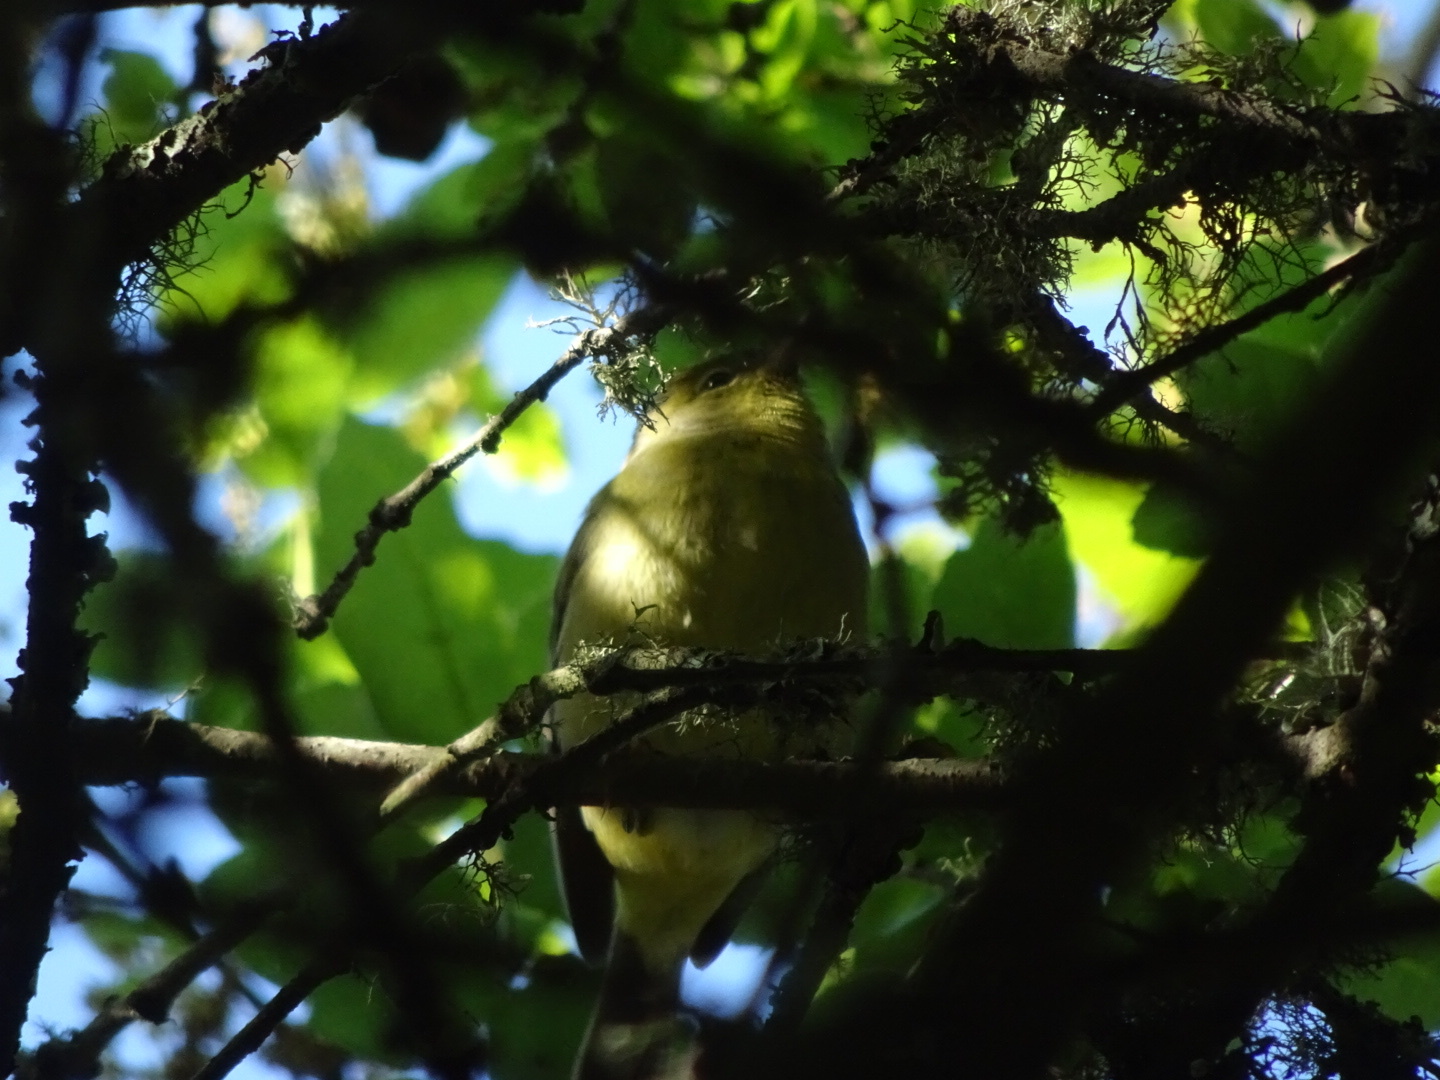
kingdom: Animalia
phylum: Chordata
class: Aves
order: Passeriformes
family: Parulidae
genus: Leiothlypis
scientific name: Leiothlypis celata
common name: Orange-crowned warbler
